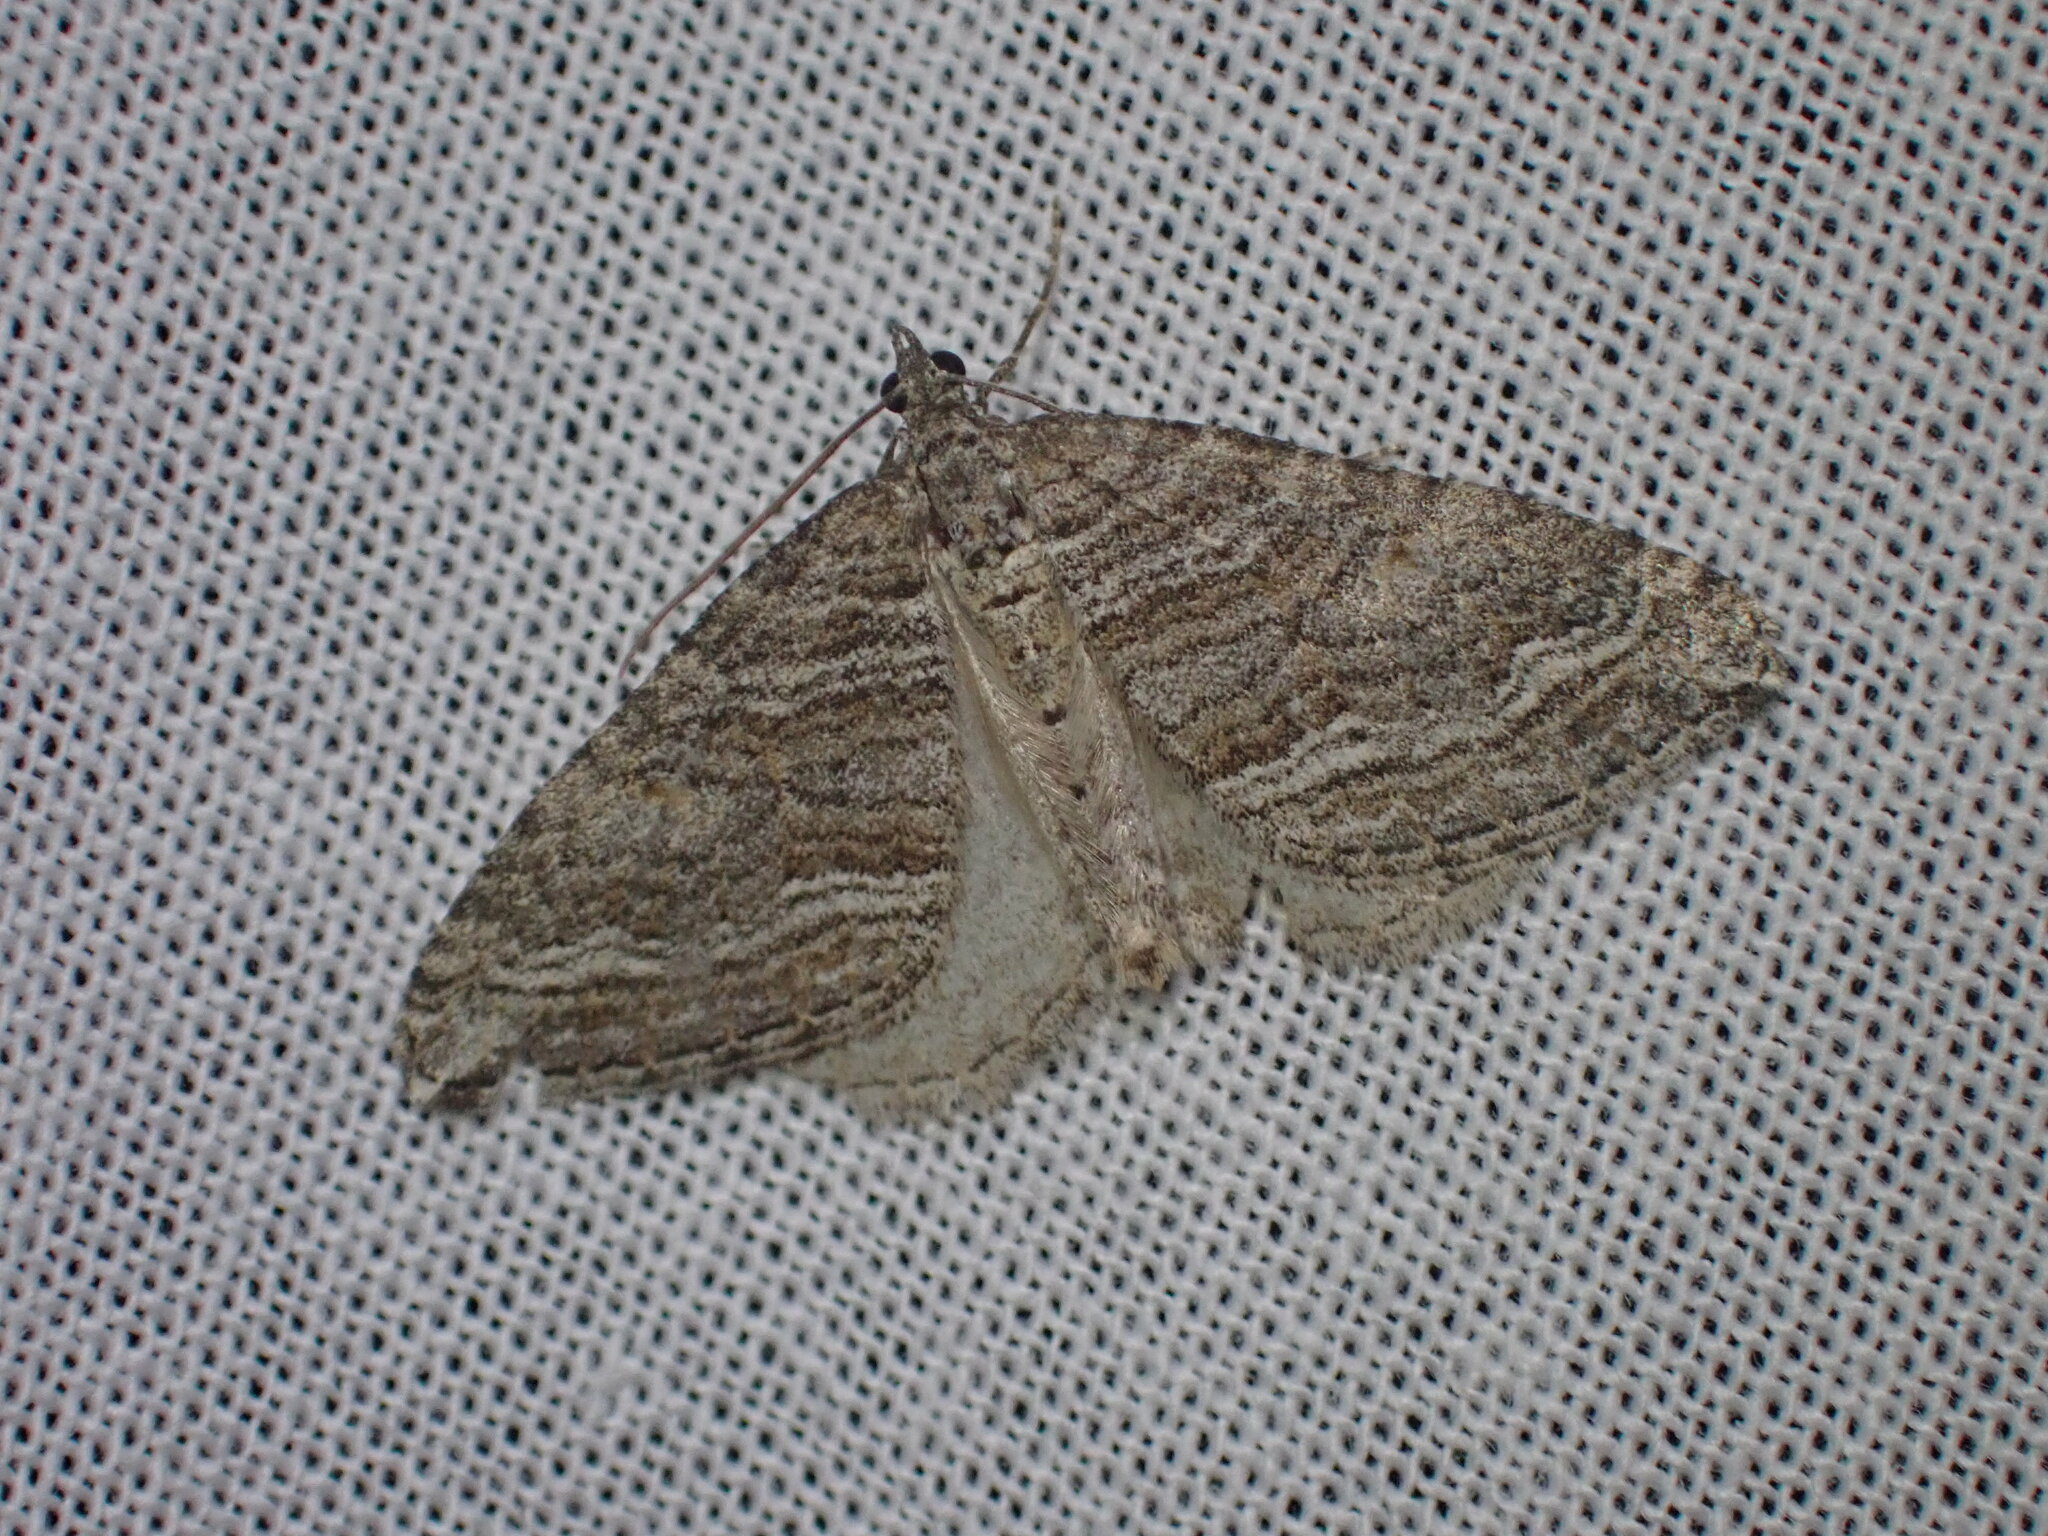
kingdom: Animalia
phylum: Arthropoda
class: Insecta
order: Lepidoptera
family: Geometridae
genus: Perizoma
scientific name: Perizoma custodiata
